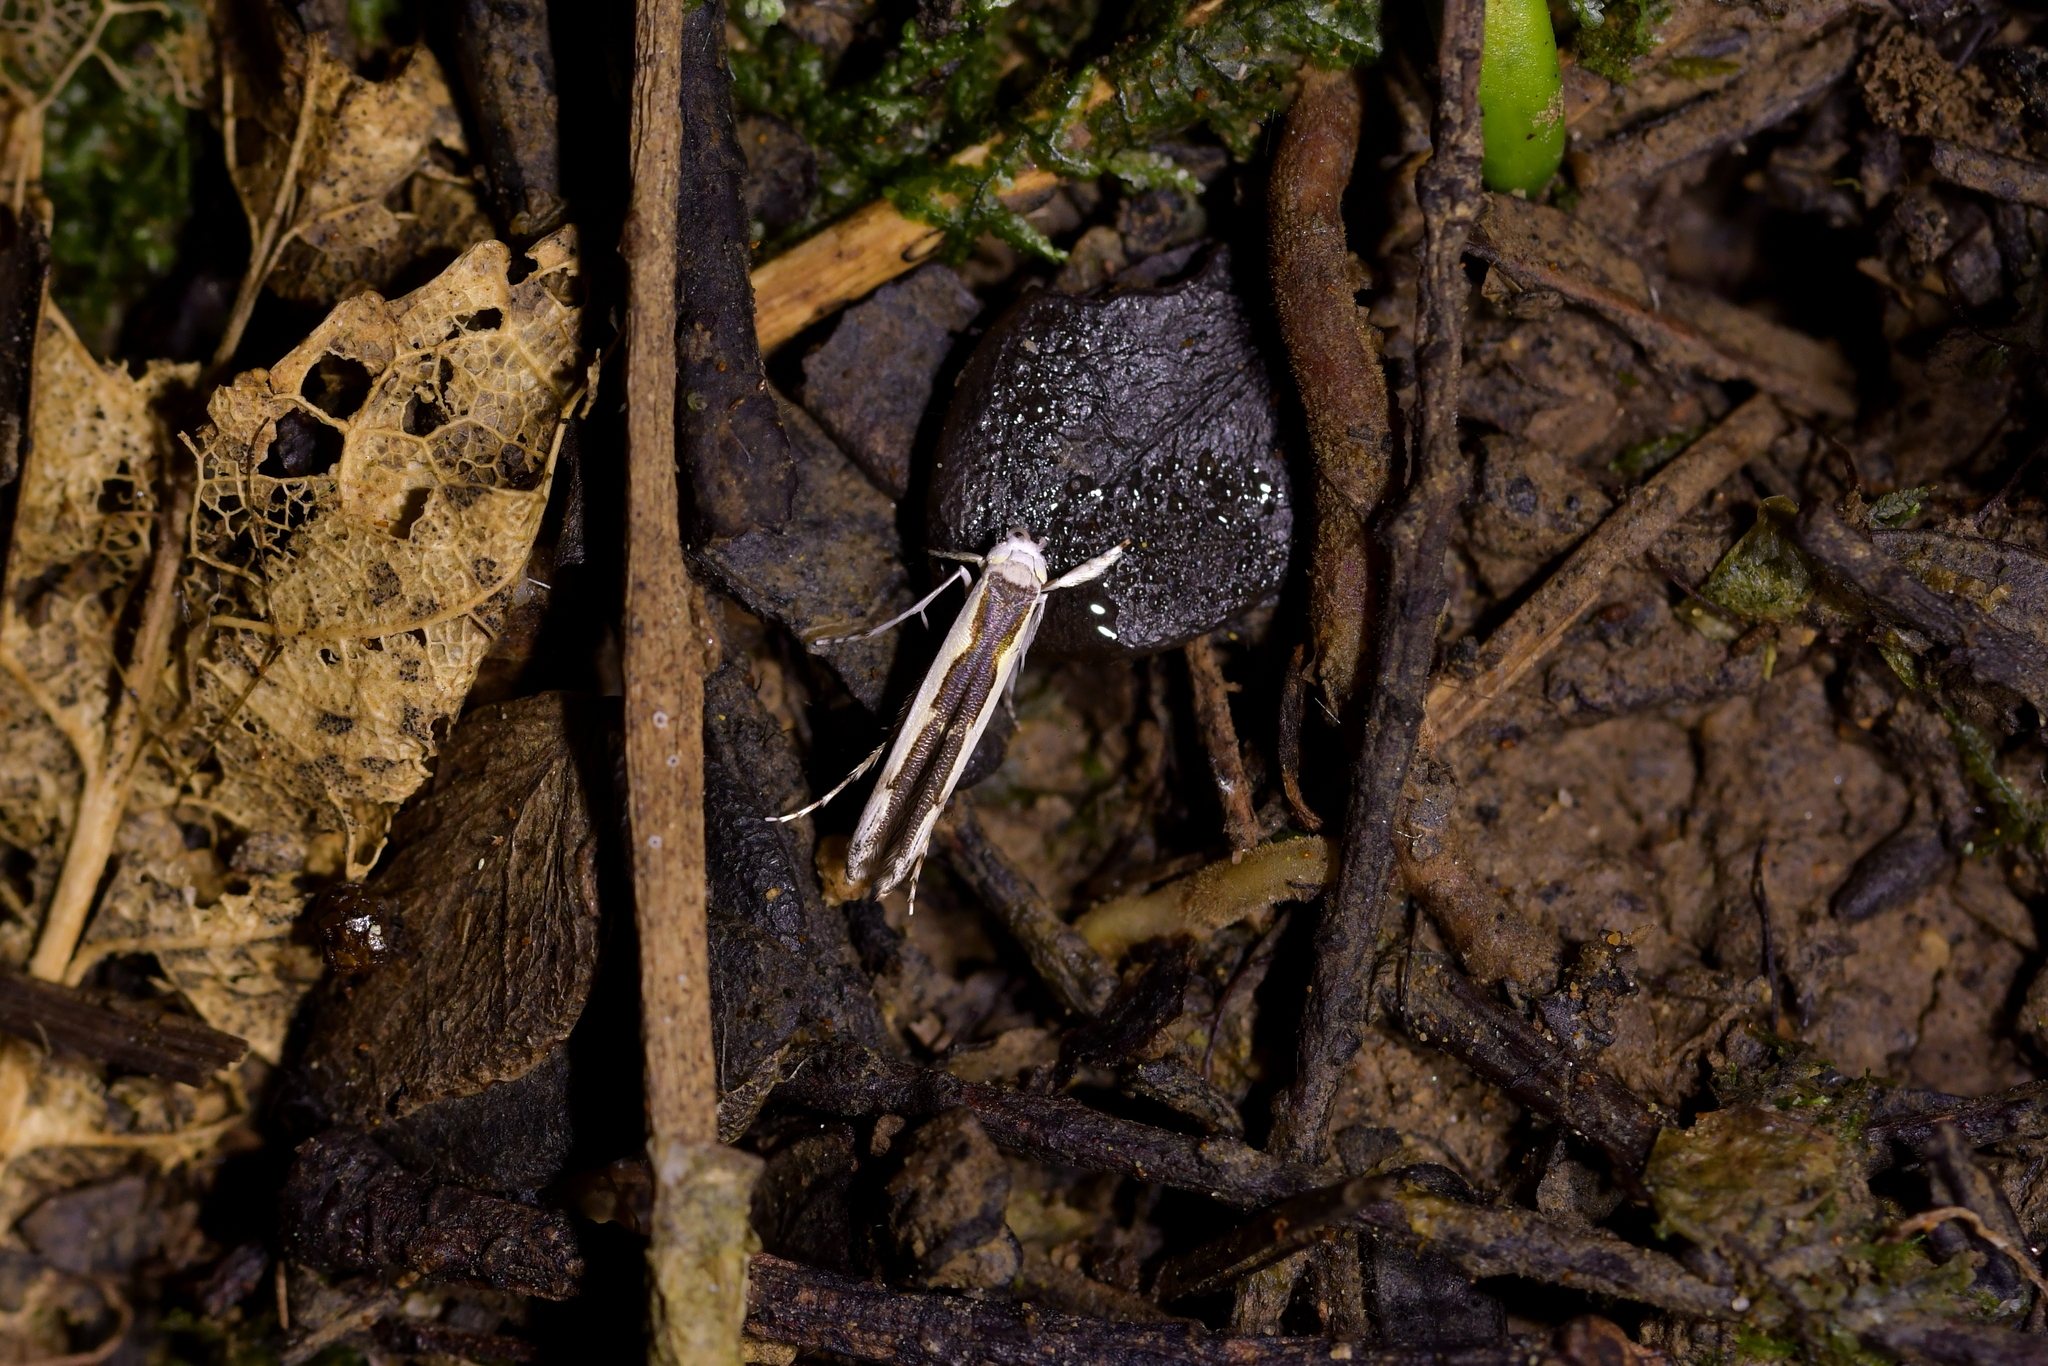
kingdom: Animalia
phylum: Arthropoda
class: Insecta
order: Lepidoptera
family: Roeslerstammiidae
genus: Vanicela
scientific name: Vanicela disjunctella
